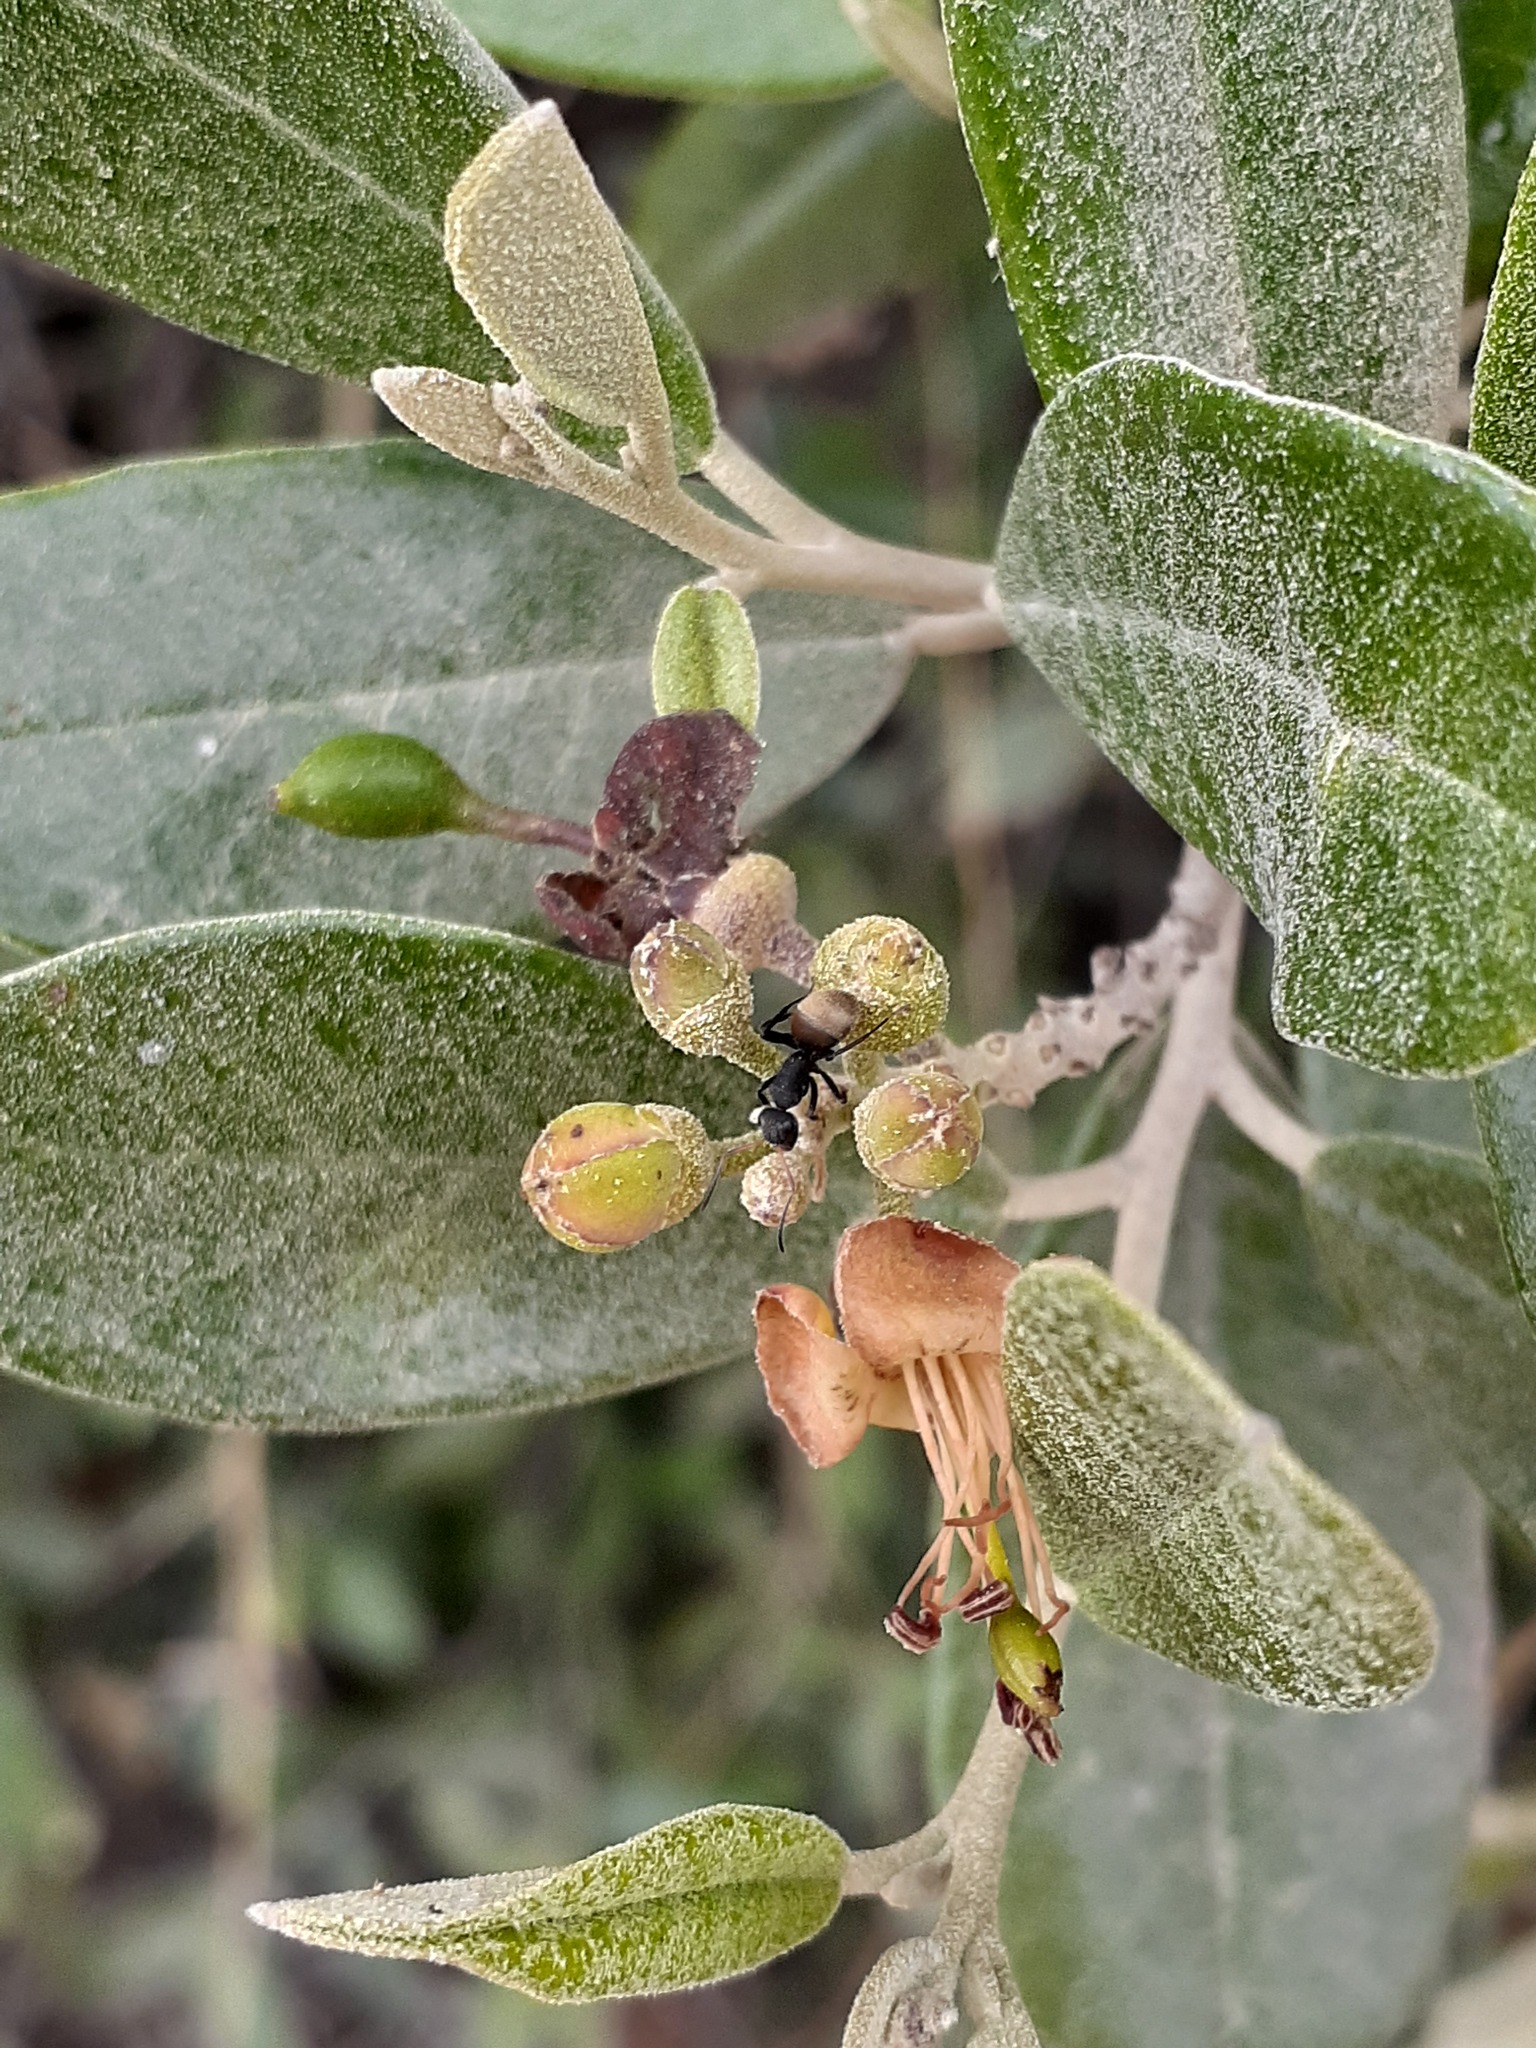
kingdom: Animalia
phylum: Arthropoda
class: Insecta
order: Hymenoptera
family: Formicidae
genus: Camponotus
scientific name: Camponotus mus
